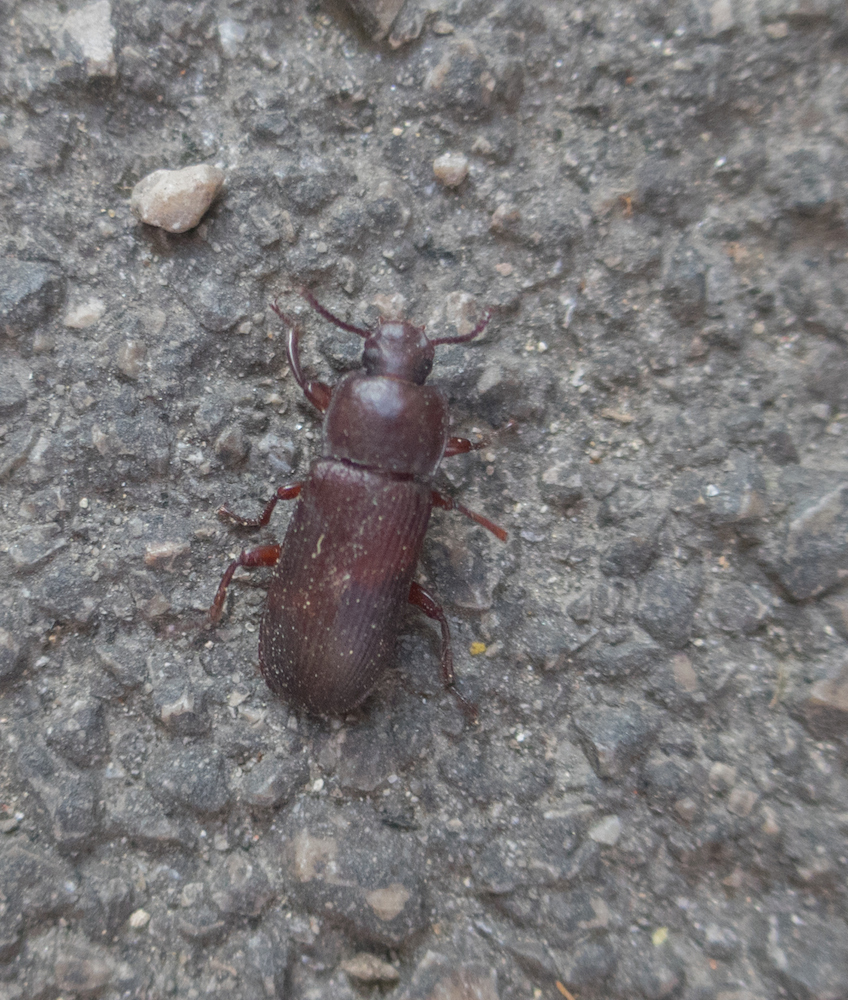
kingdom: Animalia
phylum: Arthropoda
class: Insecta
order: Coleoptera
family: Tenebrionidae
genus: Tenebrio
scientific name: Tenebrio molitor
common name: Hardback beetle
